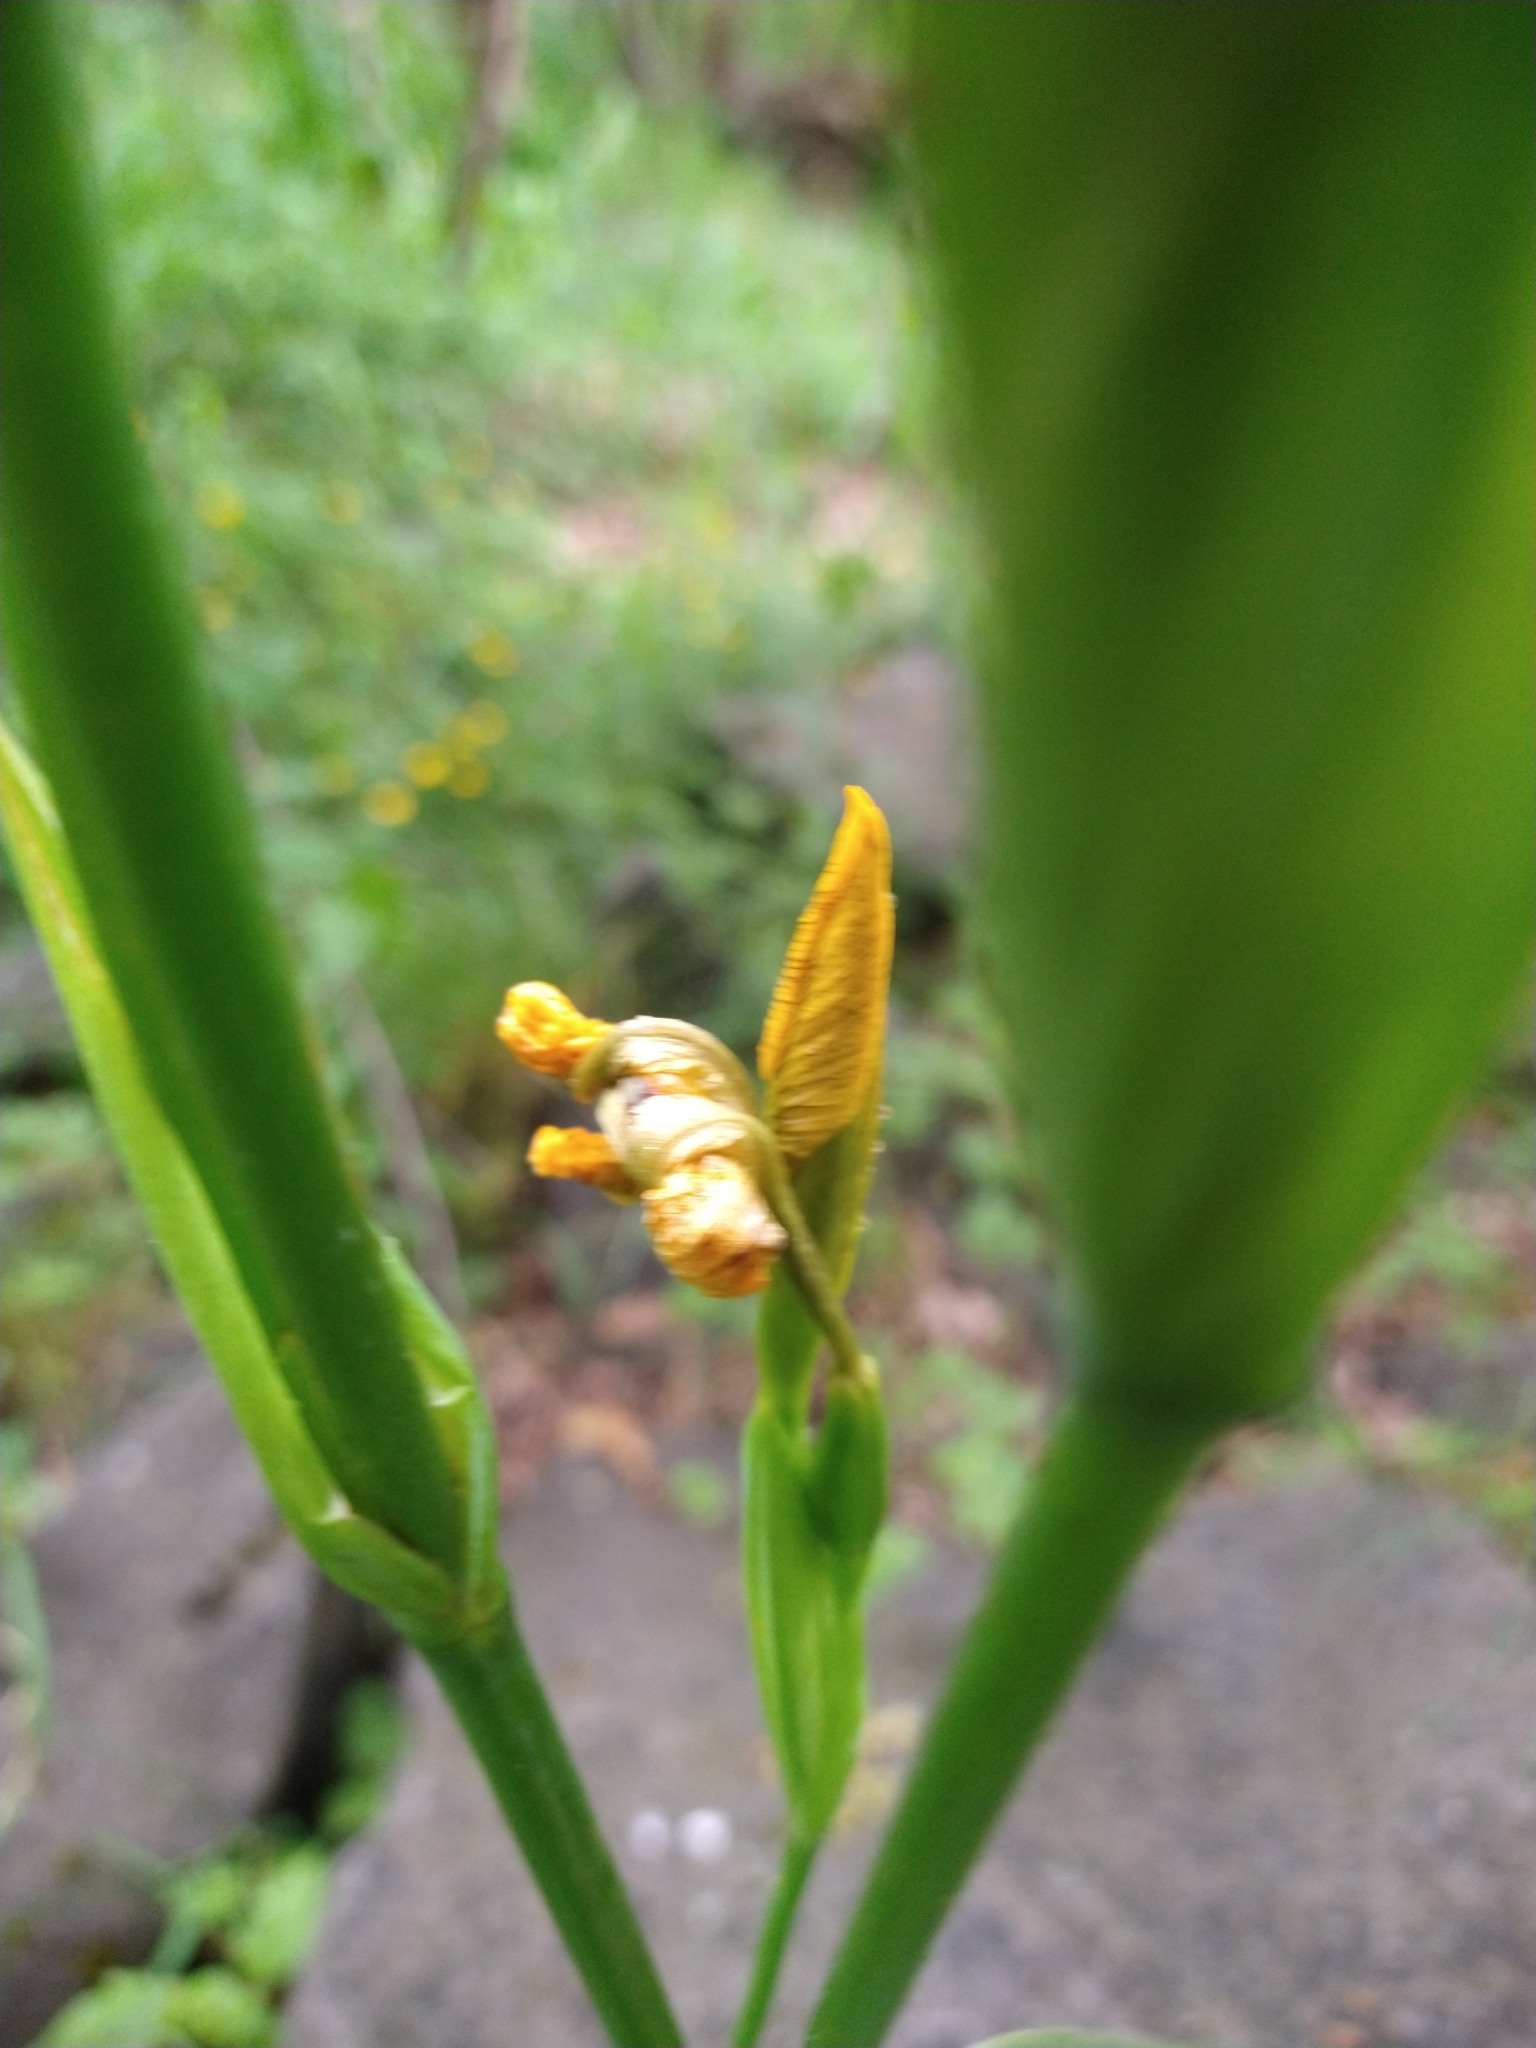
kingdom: Plantae
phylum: Tracheophyta
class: Liliopsida
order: Asparagales
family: Iridaceae
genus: Iris
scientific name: Iris pseudacorus
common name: Yellow flag
